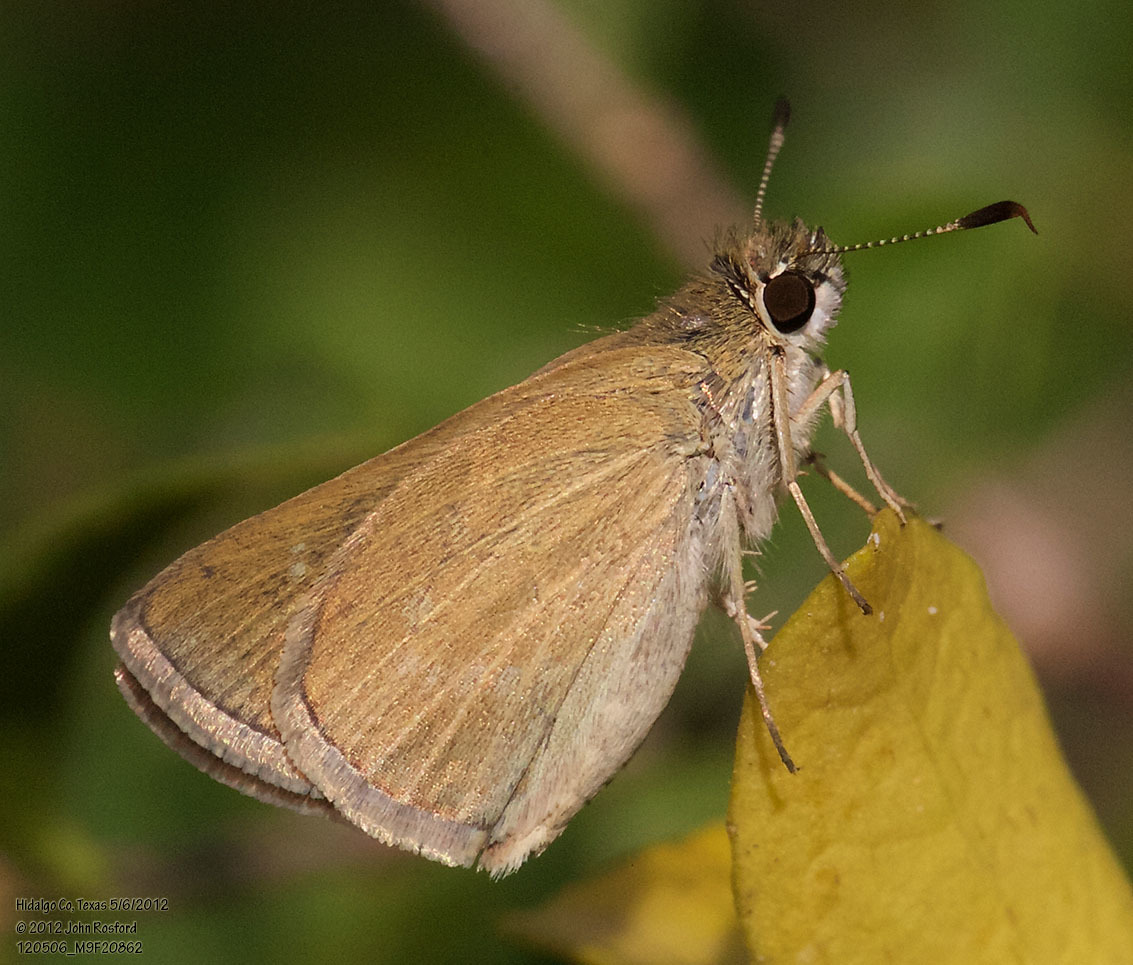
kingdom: Animalia
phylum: Arthropoda
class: Insecta
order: Lepidoptera
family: Hesperiidae
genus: Nastra
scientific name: Nastra julia
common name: Julia's skipper
